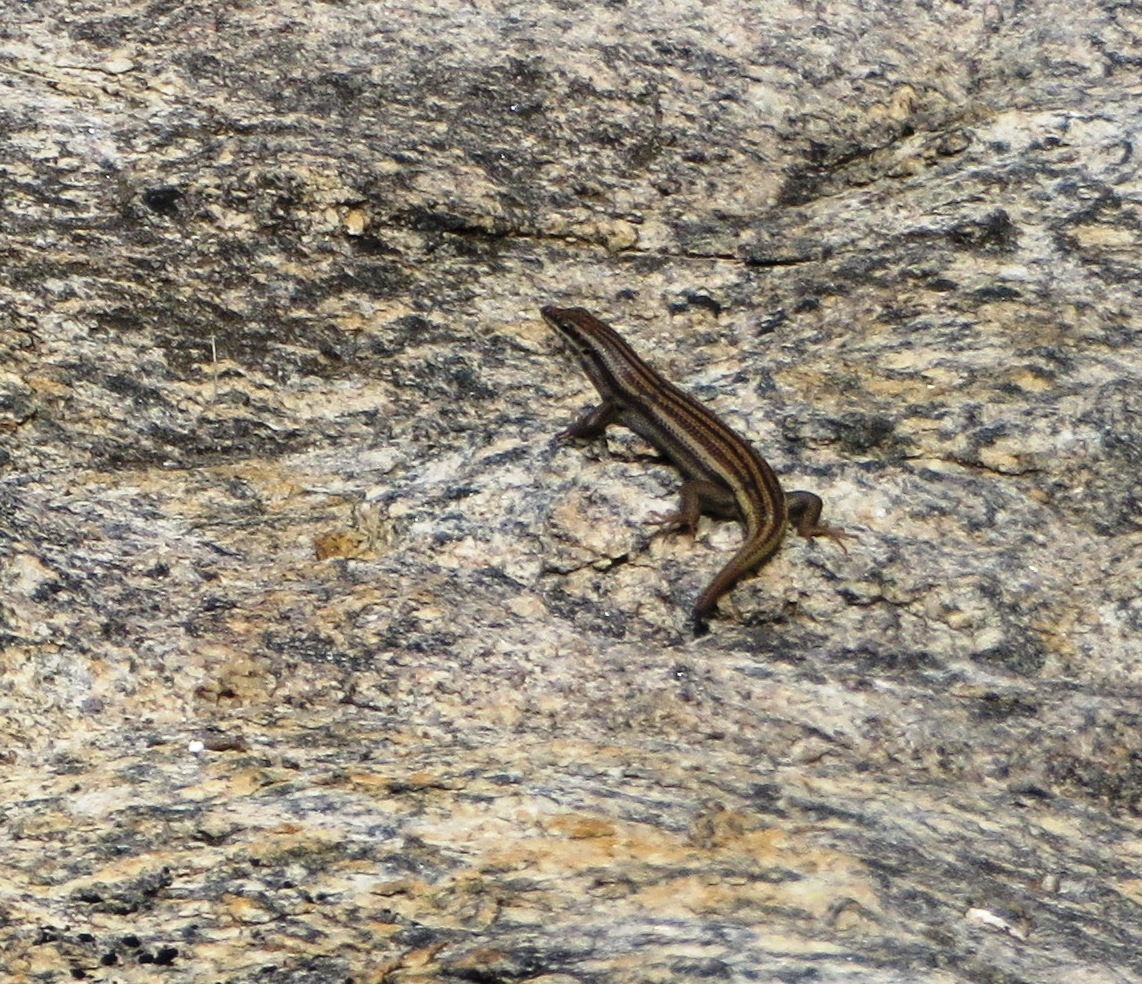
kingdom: Animalia
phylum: Chordata
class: Squamata
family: Scincidae
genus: Trachylepis
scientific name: Trachylepis sulcata
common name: Western rock skink
